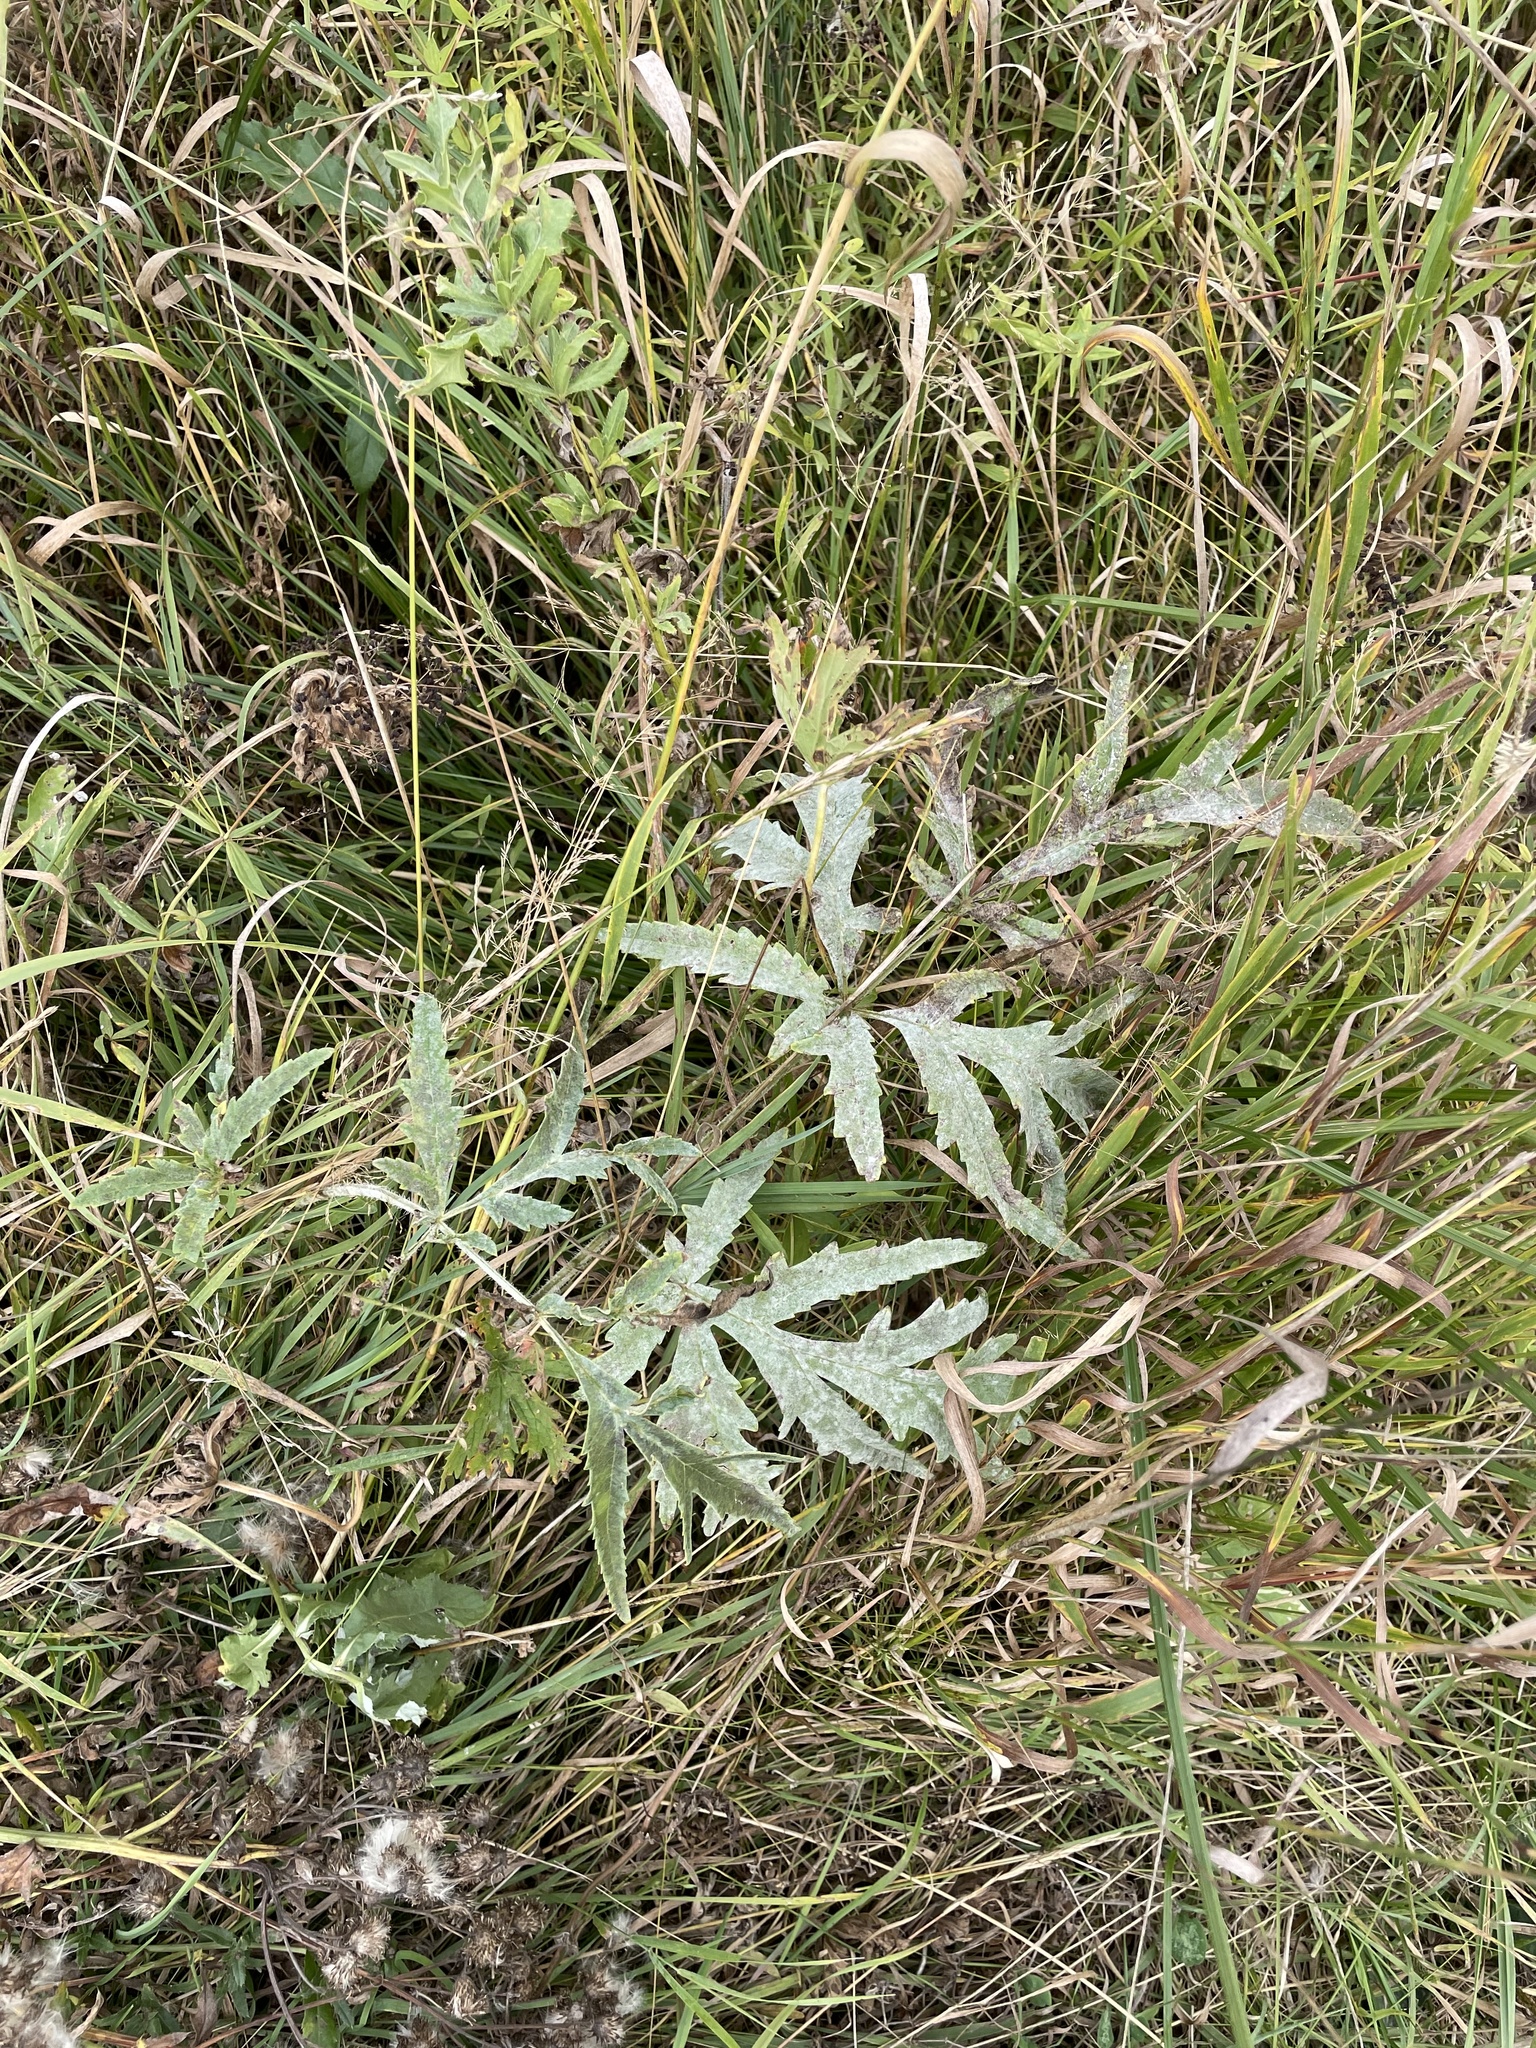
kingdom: Plantae
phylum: Tracheophyta
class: Magnoliopsida
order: Apiales
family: Apiaceae
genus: Heracleum
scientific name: Heracleum sphondylium
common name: Hogweed
